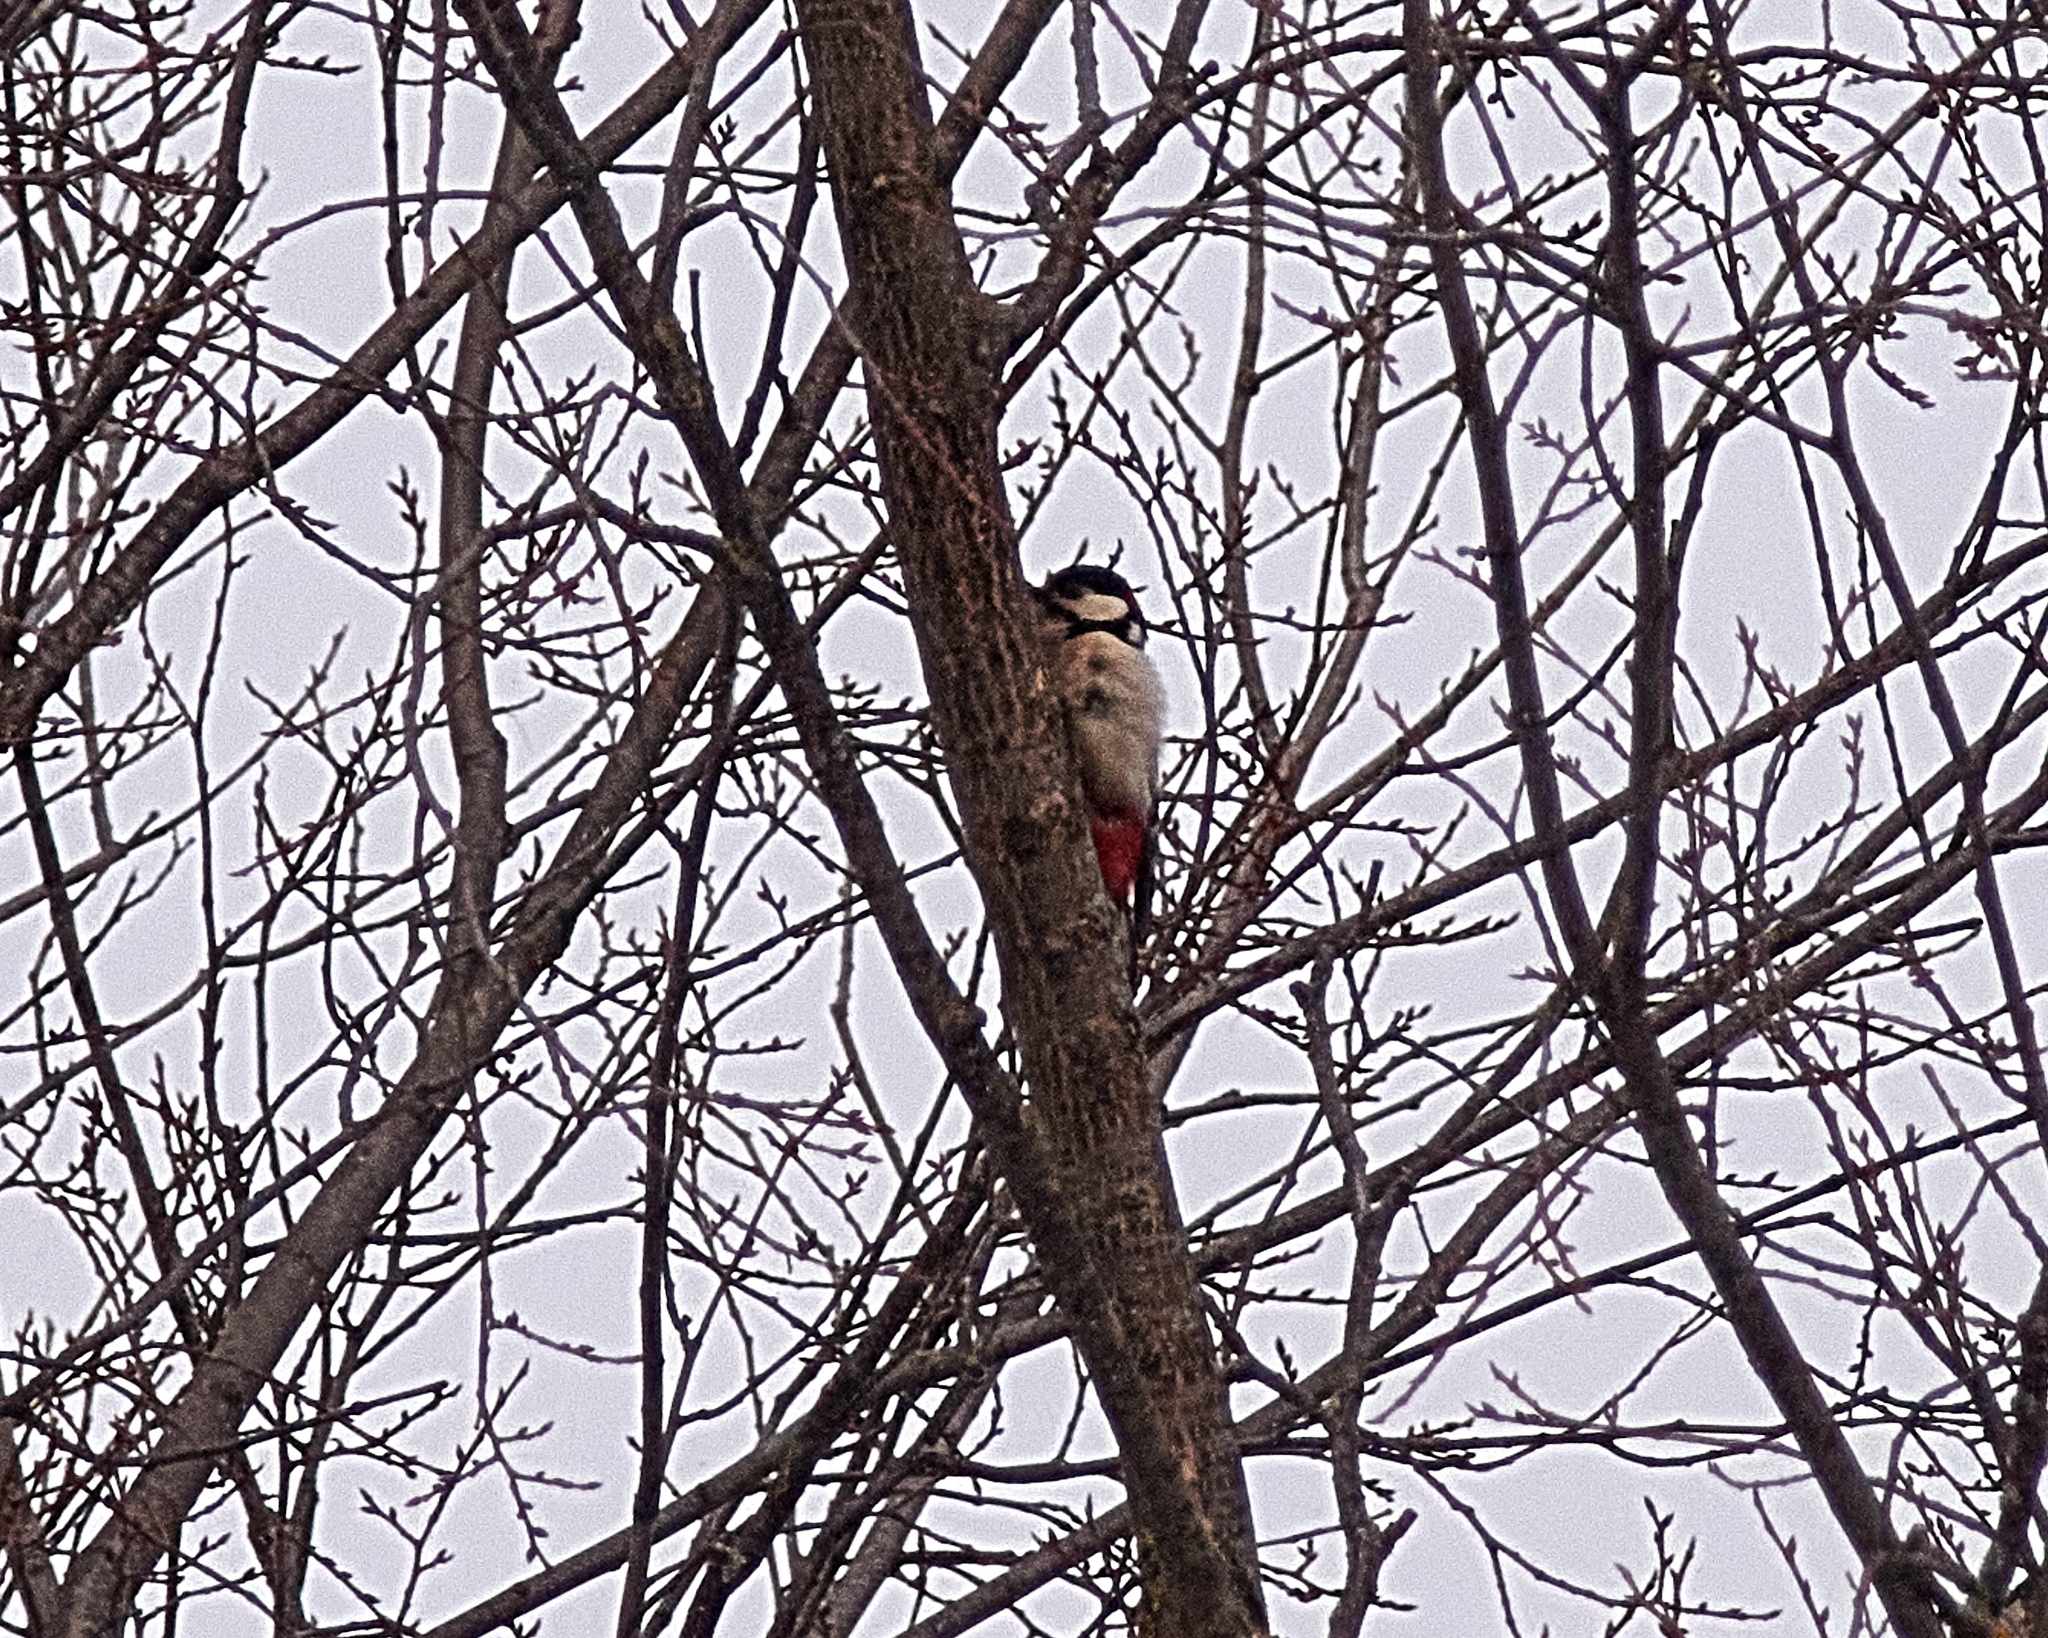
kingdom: Animalia
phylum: Chordata
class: Aves
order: Piciformes
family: Picidae
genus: Dendrocopos
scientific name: Dendrocopos major
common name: Great spotted woodpecker
